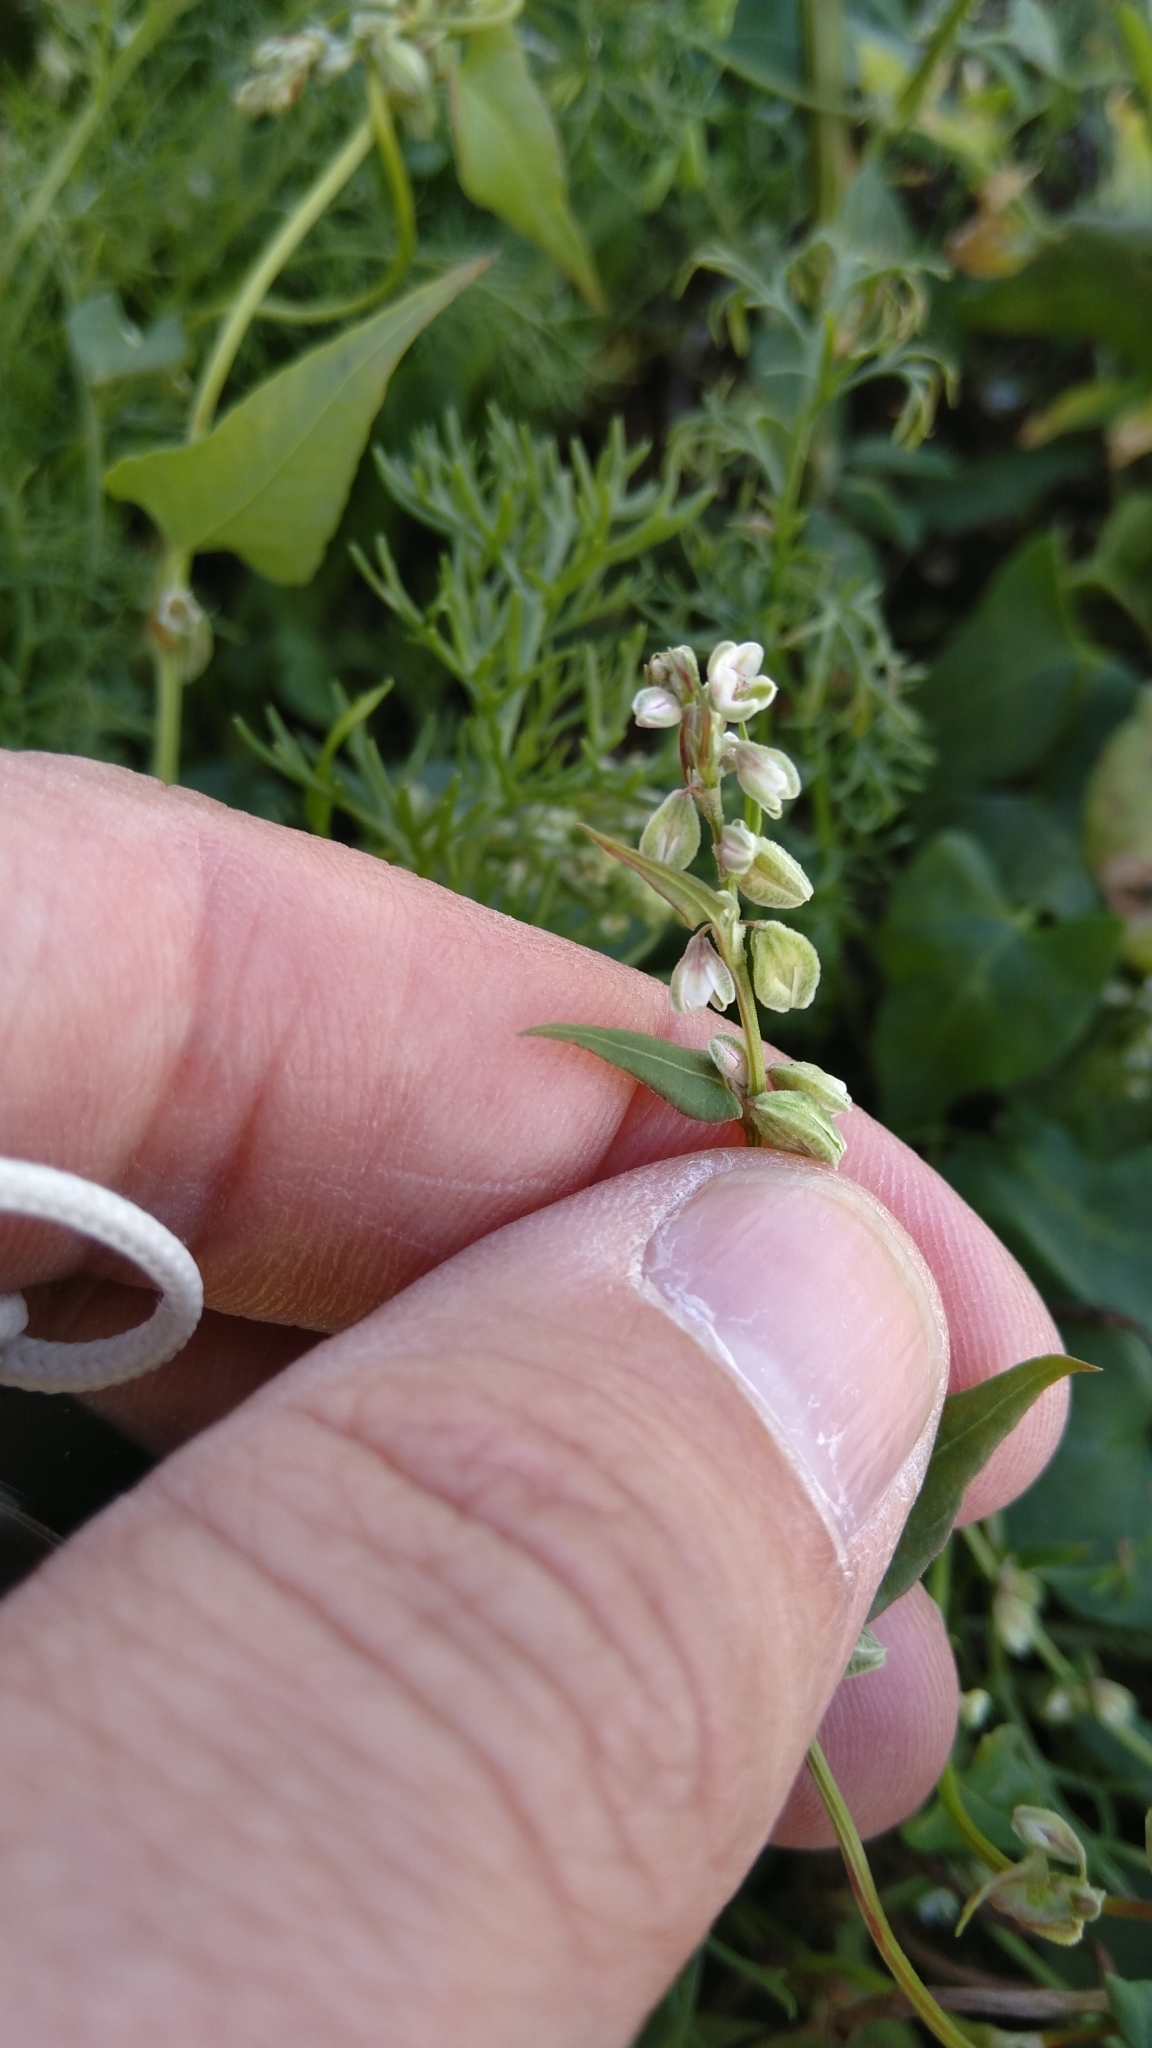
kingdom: Plantae
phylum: Tracheophyta
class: Magnoliopsida
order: Caryophyllales
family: Polygonaceae
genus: Fallopia
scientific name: Fallopia convolvulus
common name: Black bindweed
